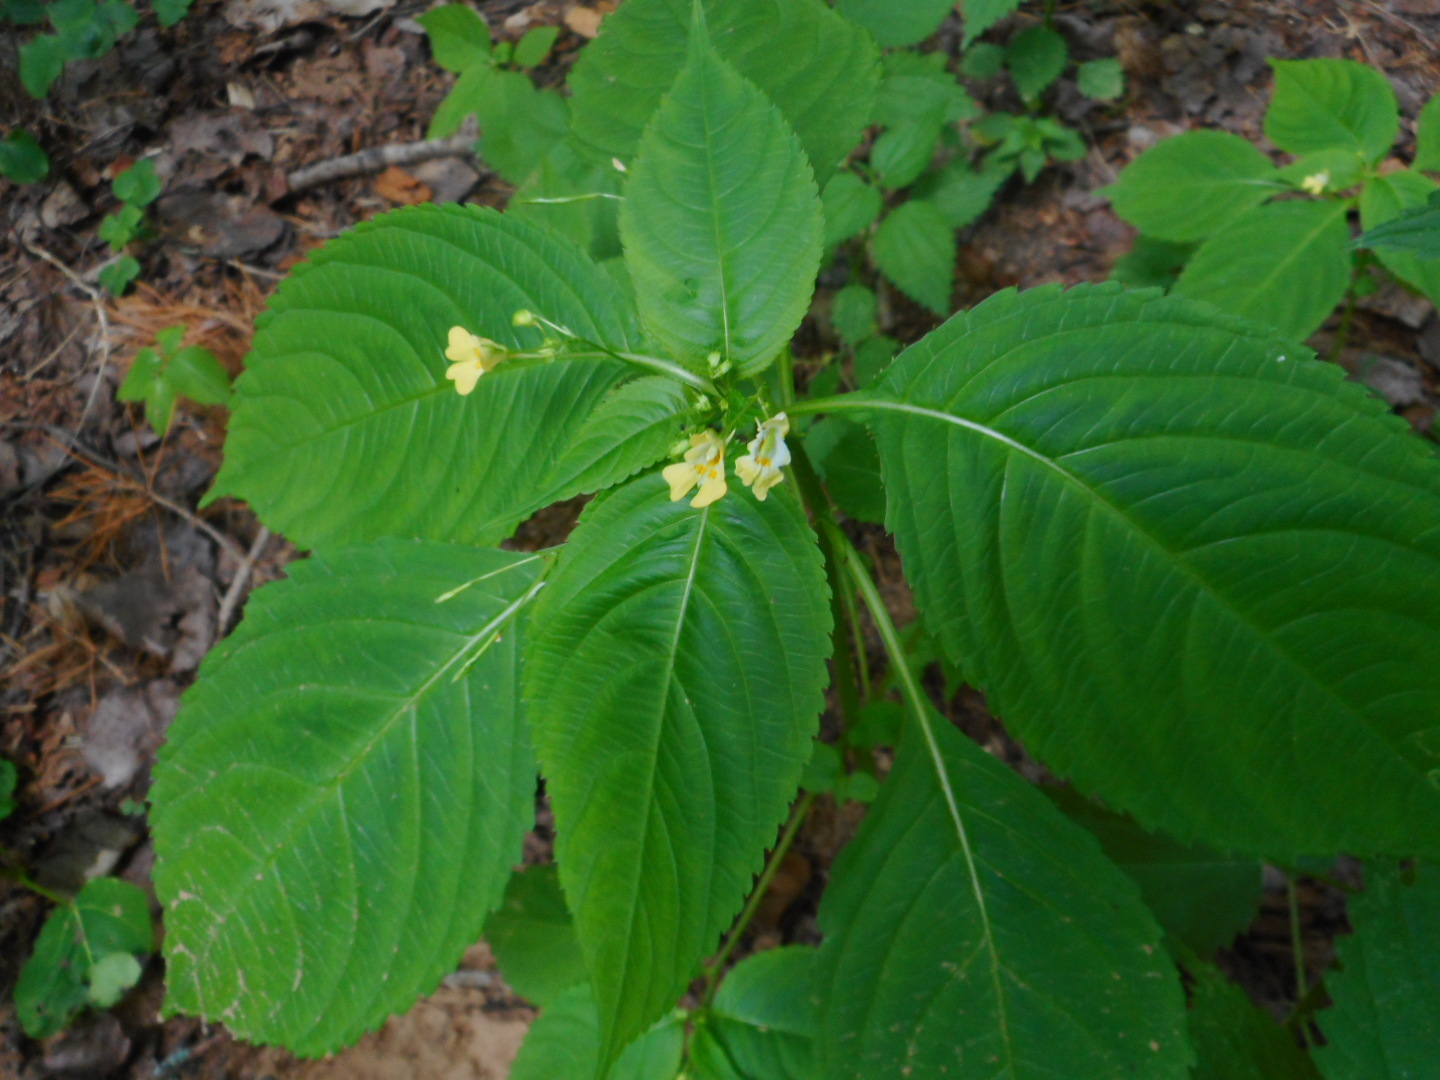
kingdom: Plantae
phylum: Tracheophyta
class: Magnoliopsida
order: Ericales
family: Balsaminaceae
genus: Impatiens
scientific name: Impatiens parviflora
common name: Small balsam
